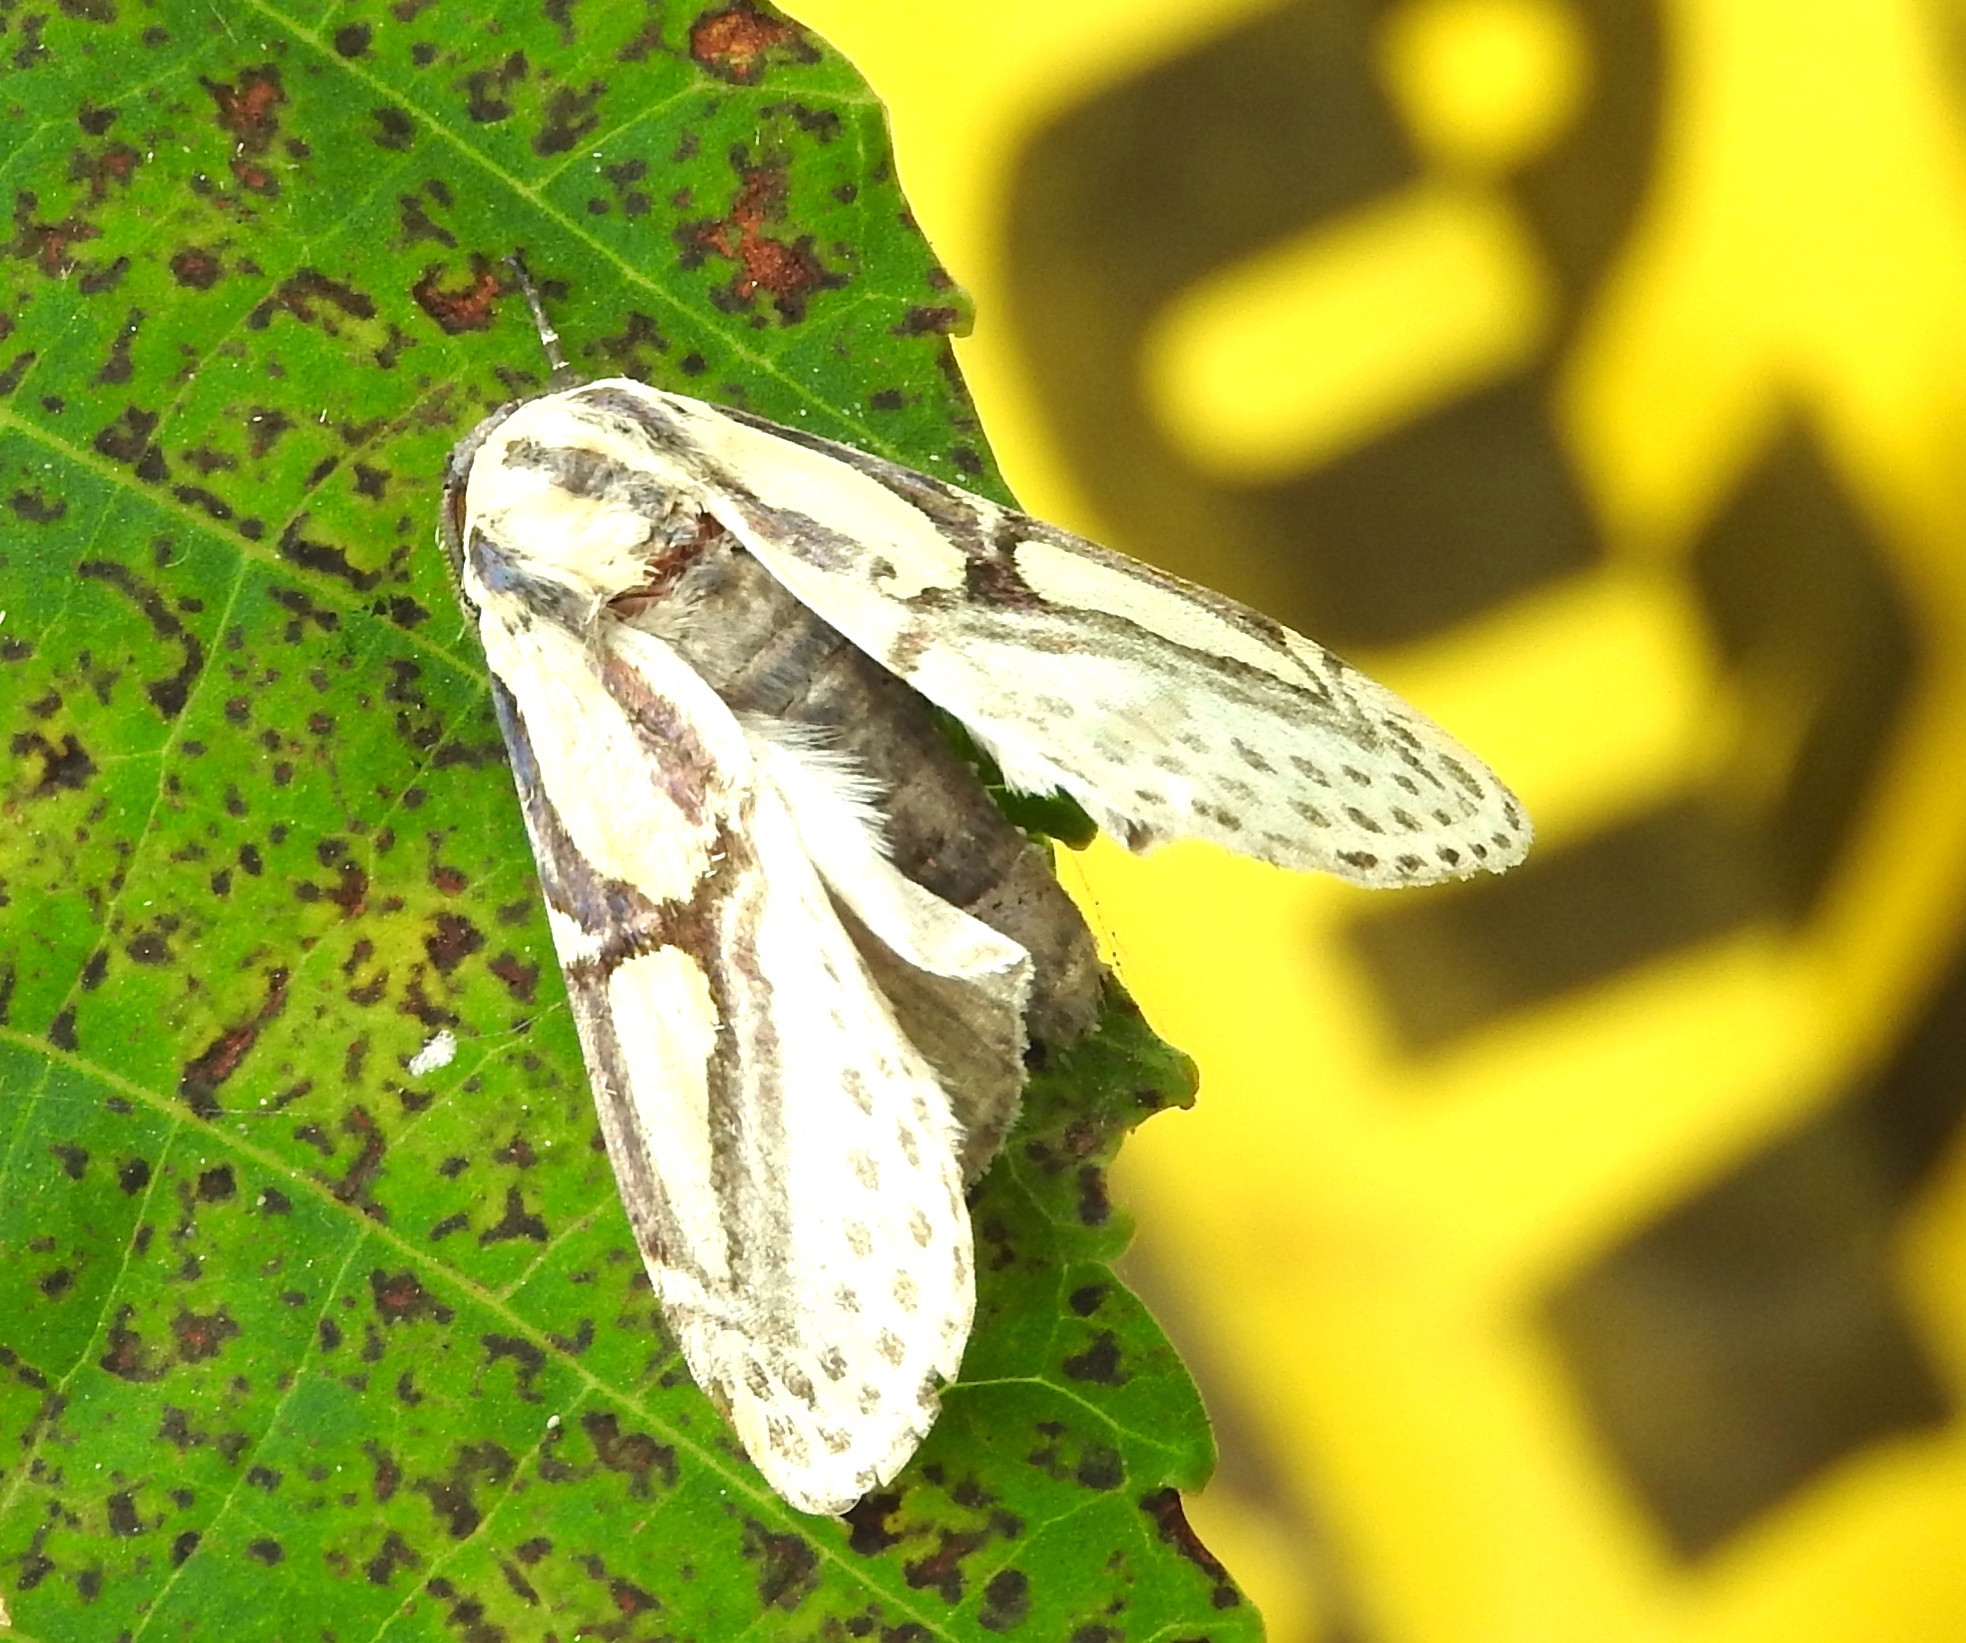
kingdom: Animalia
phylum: Arthropoda
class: Insecta
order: Lepidoptera
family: Erebidae
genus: Diphthera
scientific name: Diphthera festiva
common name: Hieroglyphic moth
